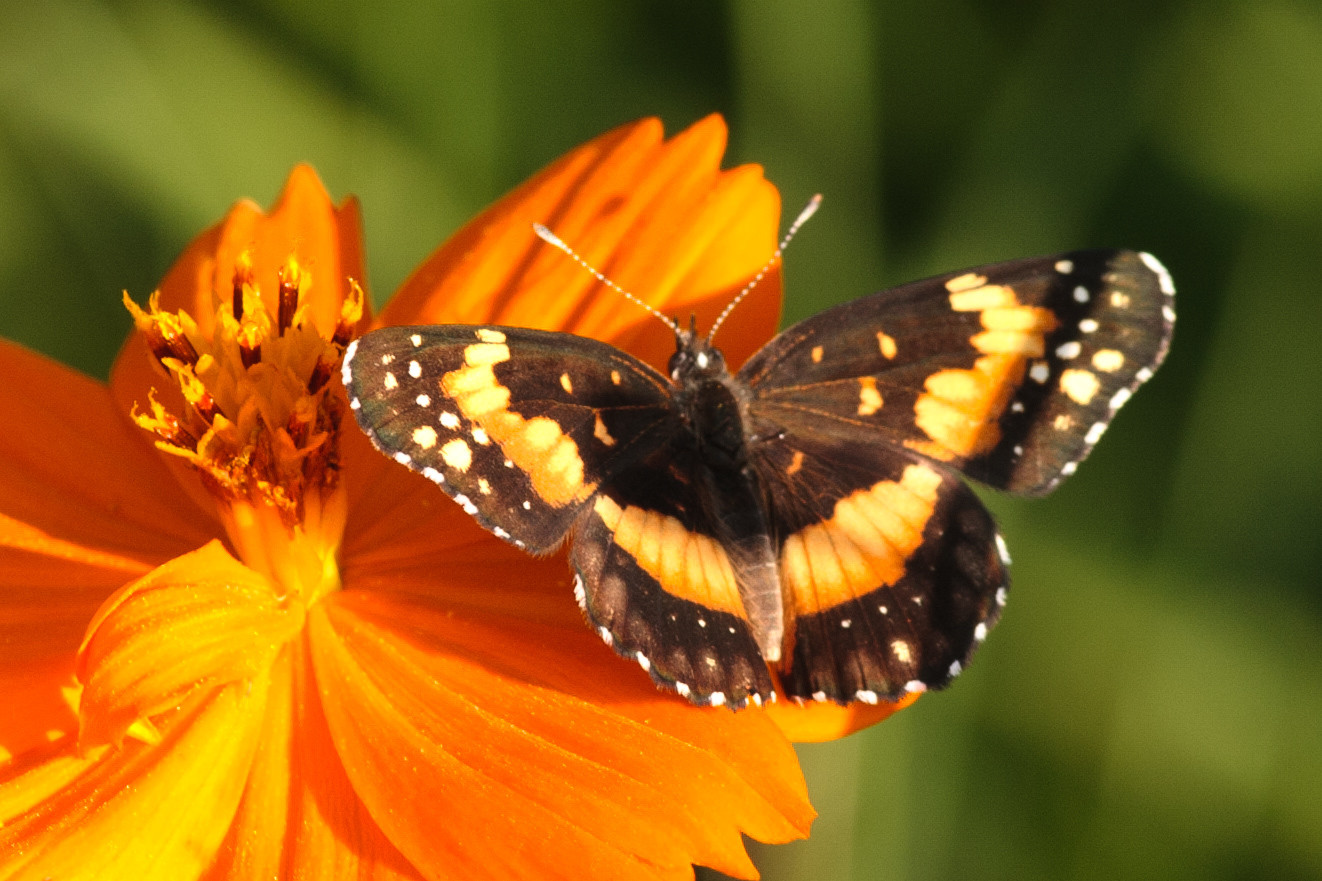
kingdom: Animalia
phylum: Arthropoda
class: Insecta
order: Lepidoptera
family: Nymphalidae
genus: Chlosyne
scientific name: Chlosyne lacinia
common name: Bordered patch
